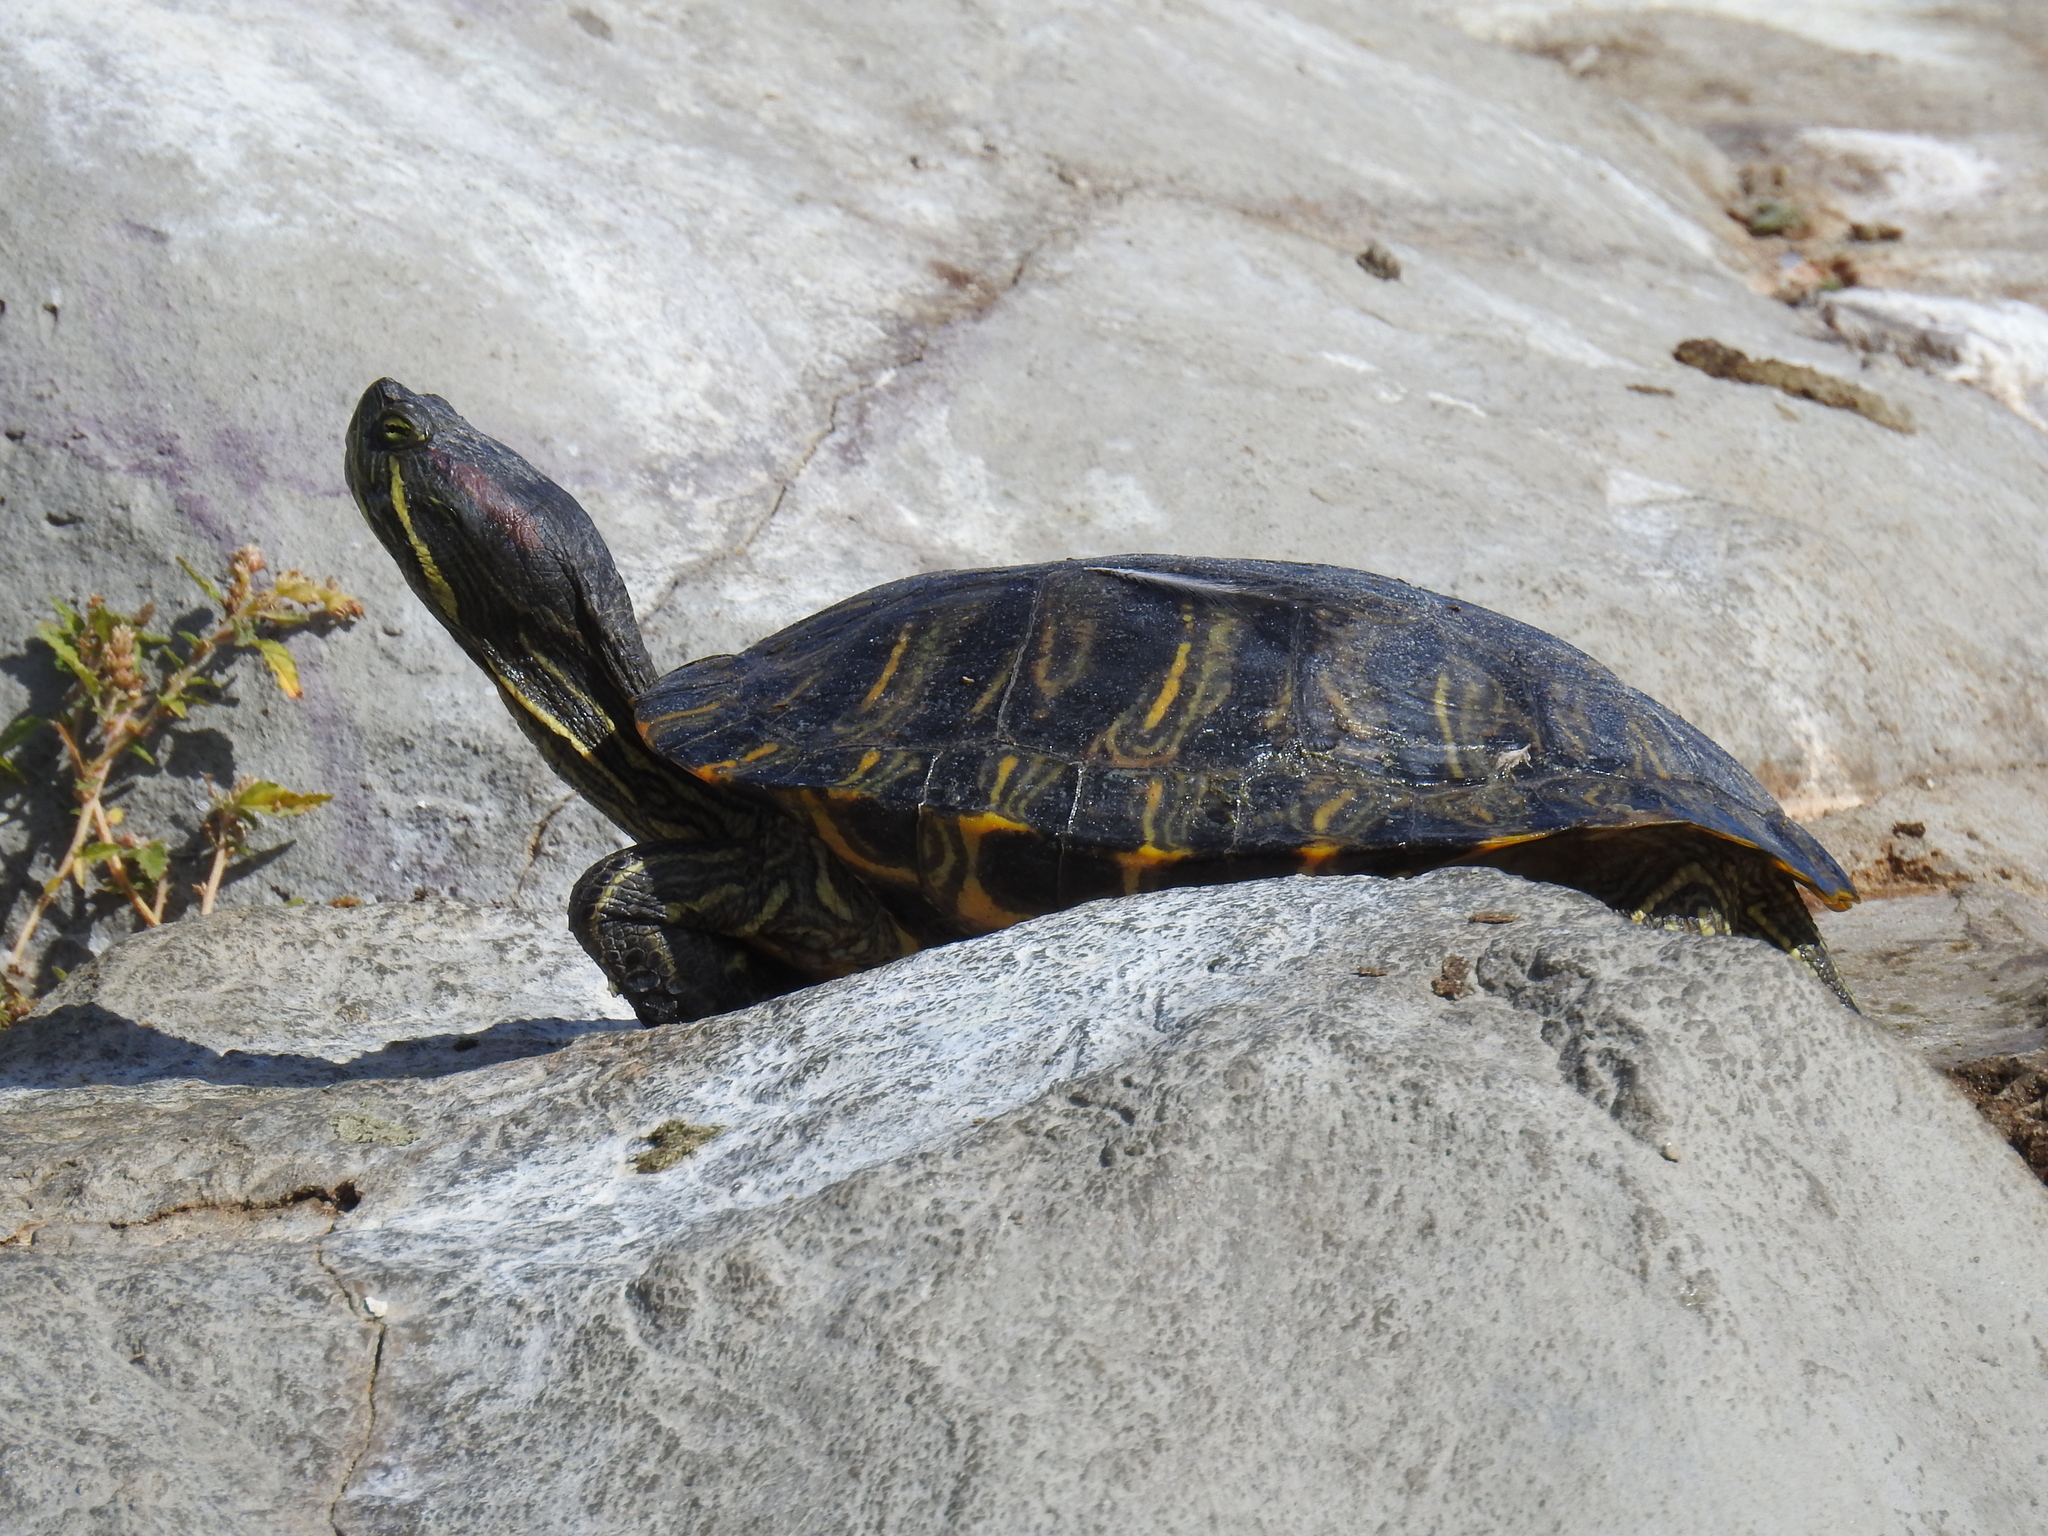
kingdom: Animalia
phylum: Chordata
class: Testudines
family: Emydidae
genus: Trachemys
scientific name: Trachemys scripta
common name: Slider
